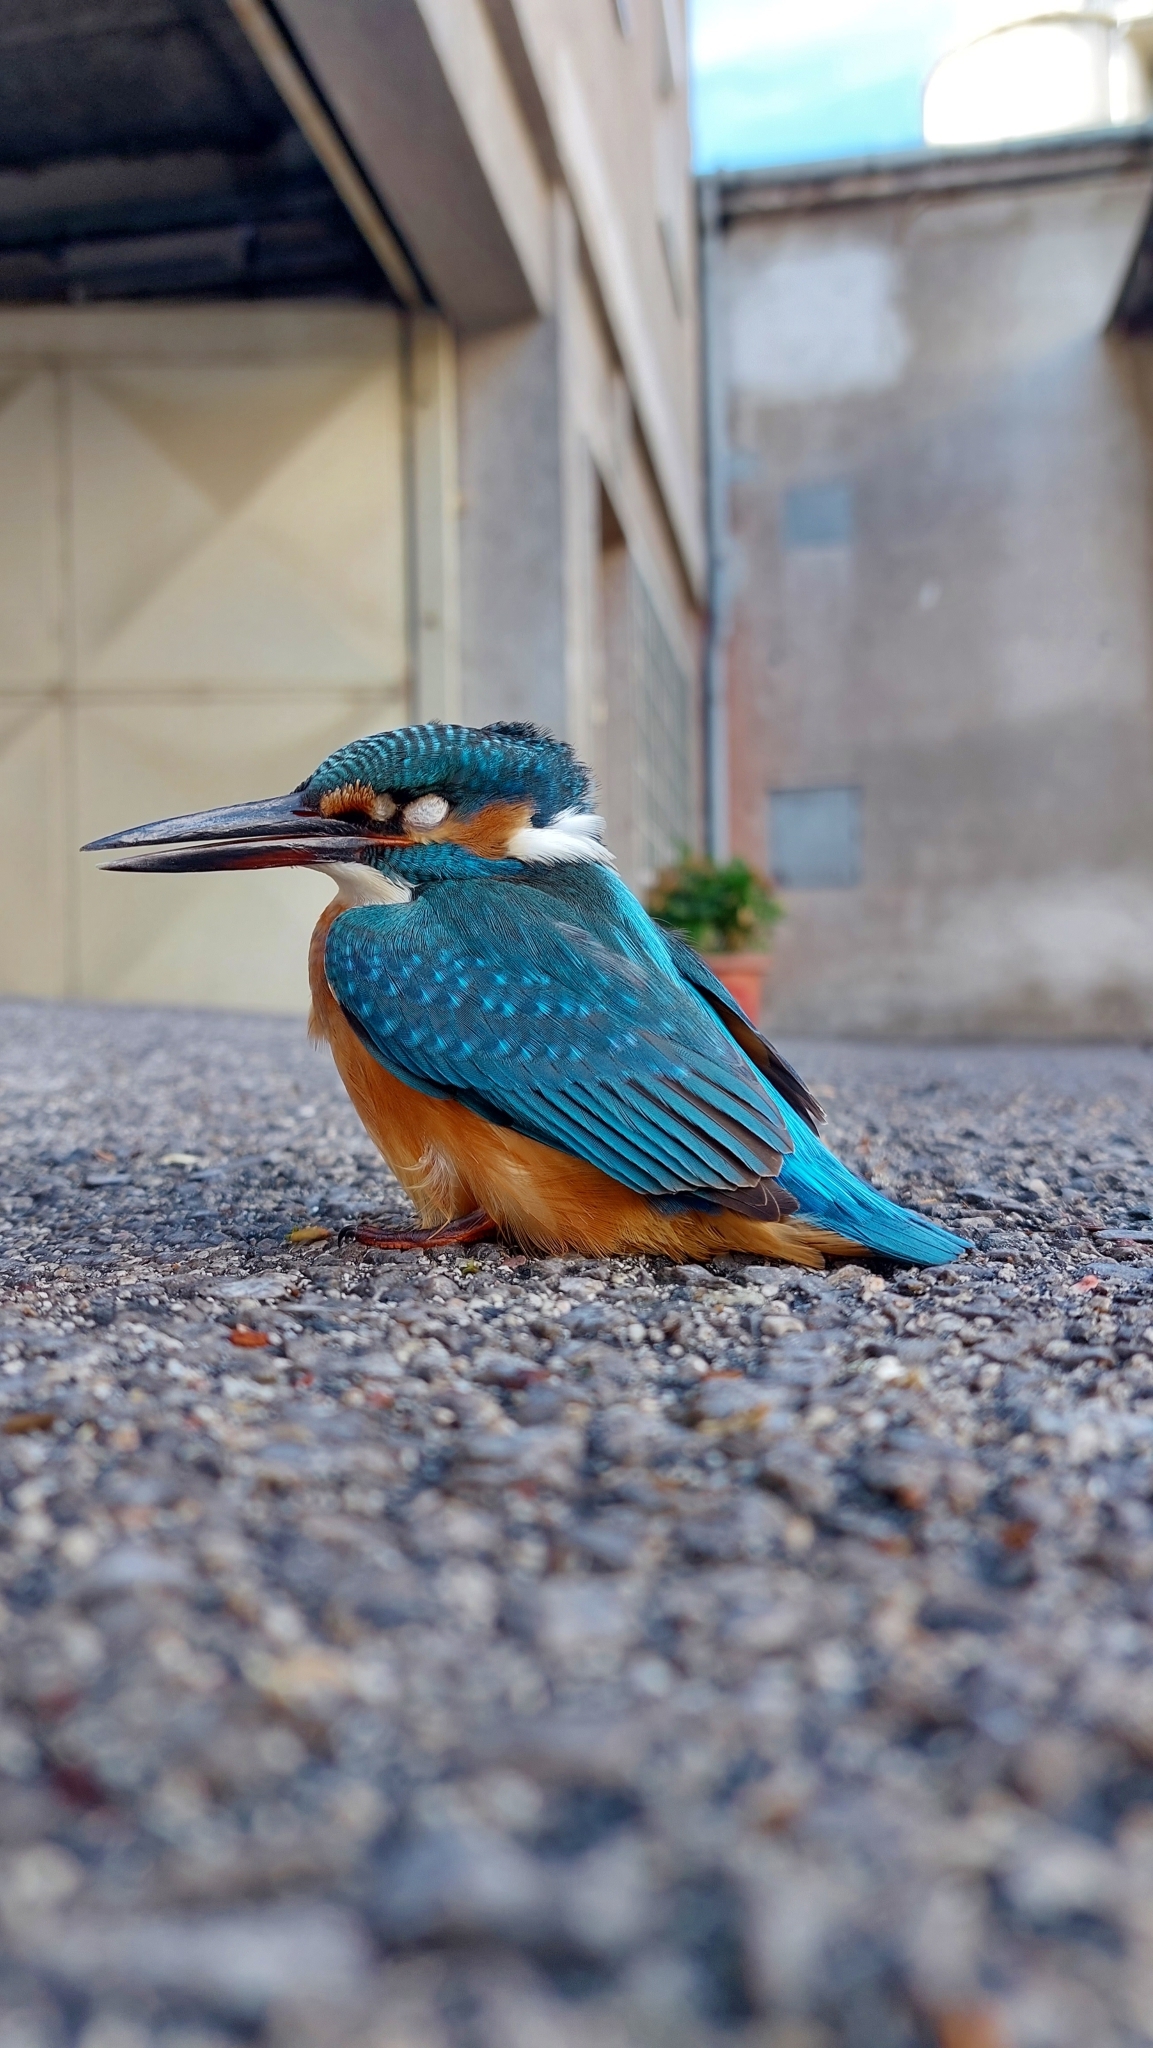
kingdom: Animalia
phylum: Chordata
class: Aves
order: Coraciiformes
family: Alcedinidae
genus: Alcedo
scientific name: Alcedo atthis
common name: Common kingfisher
